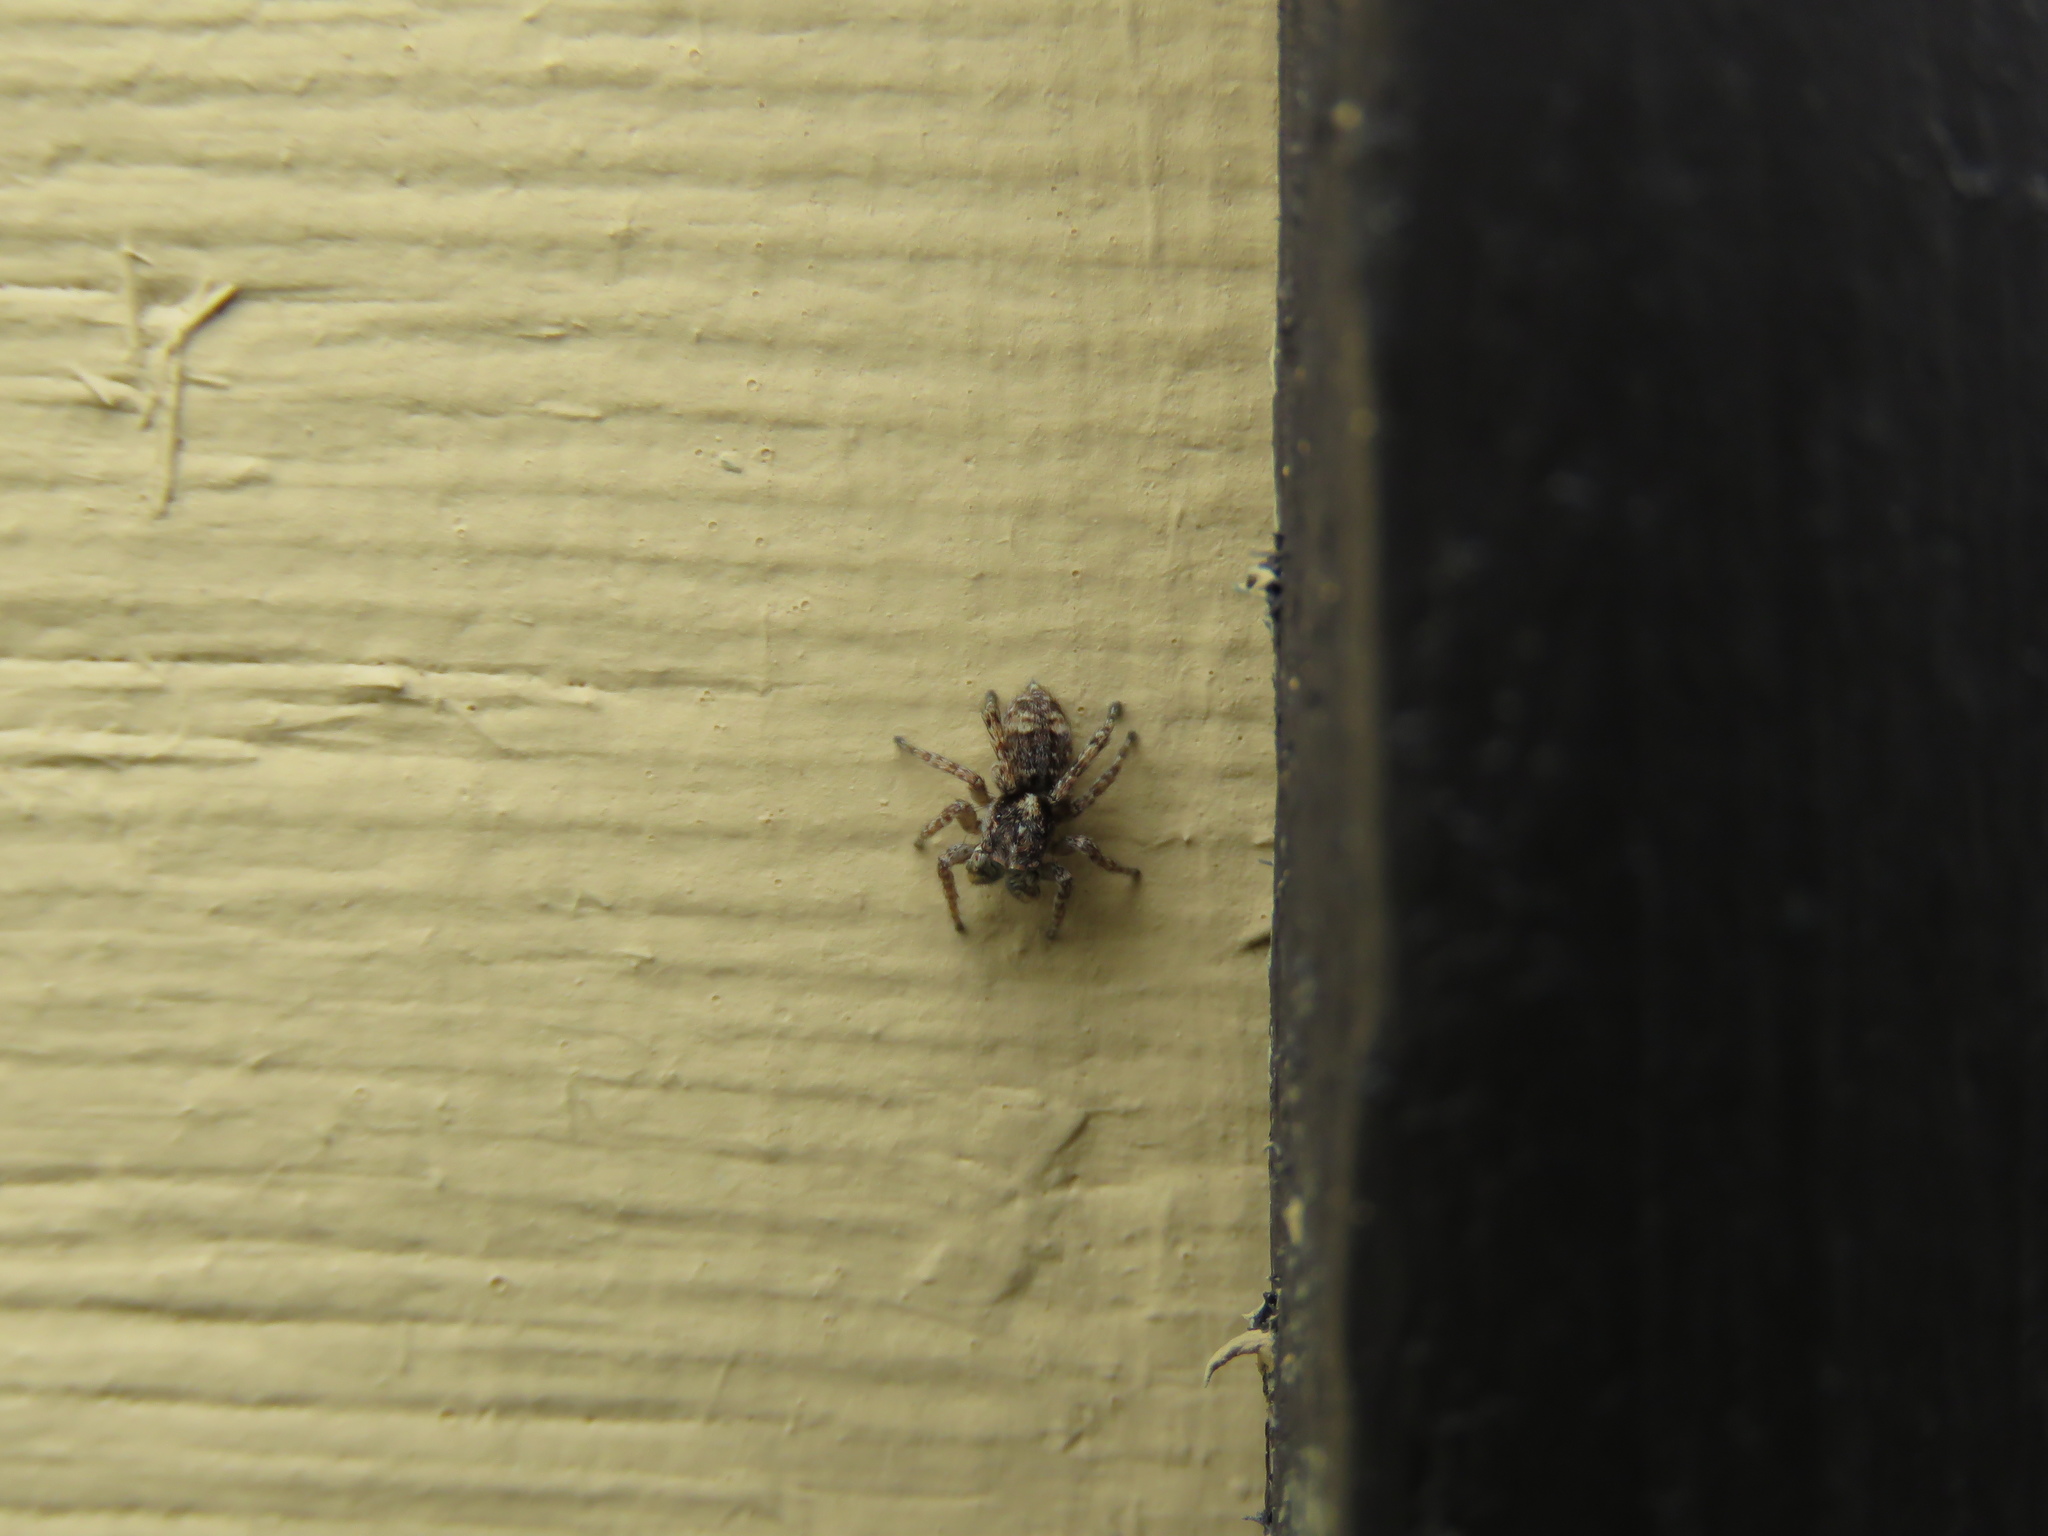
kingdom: Animalia
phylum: Arthropoda
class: Arachnida
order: Araneae
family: Salticidae
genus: Attulus
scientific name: Attulus fasciger
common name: Asiatic wall jumping spider
